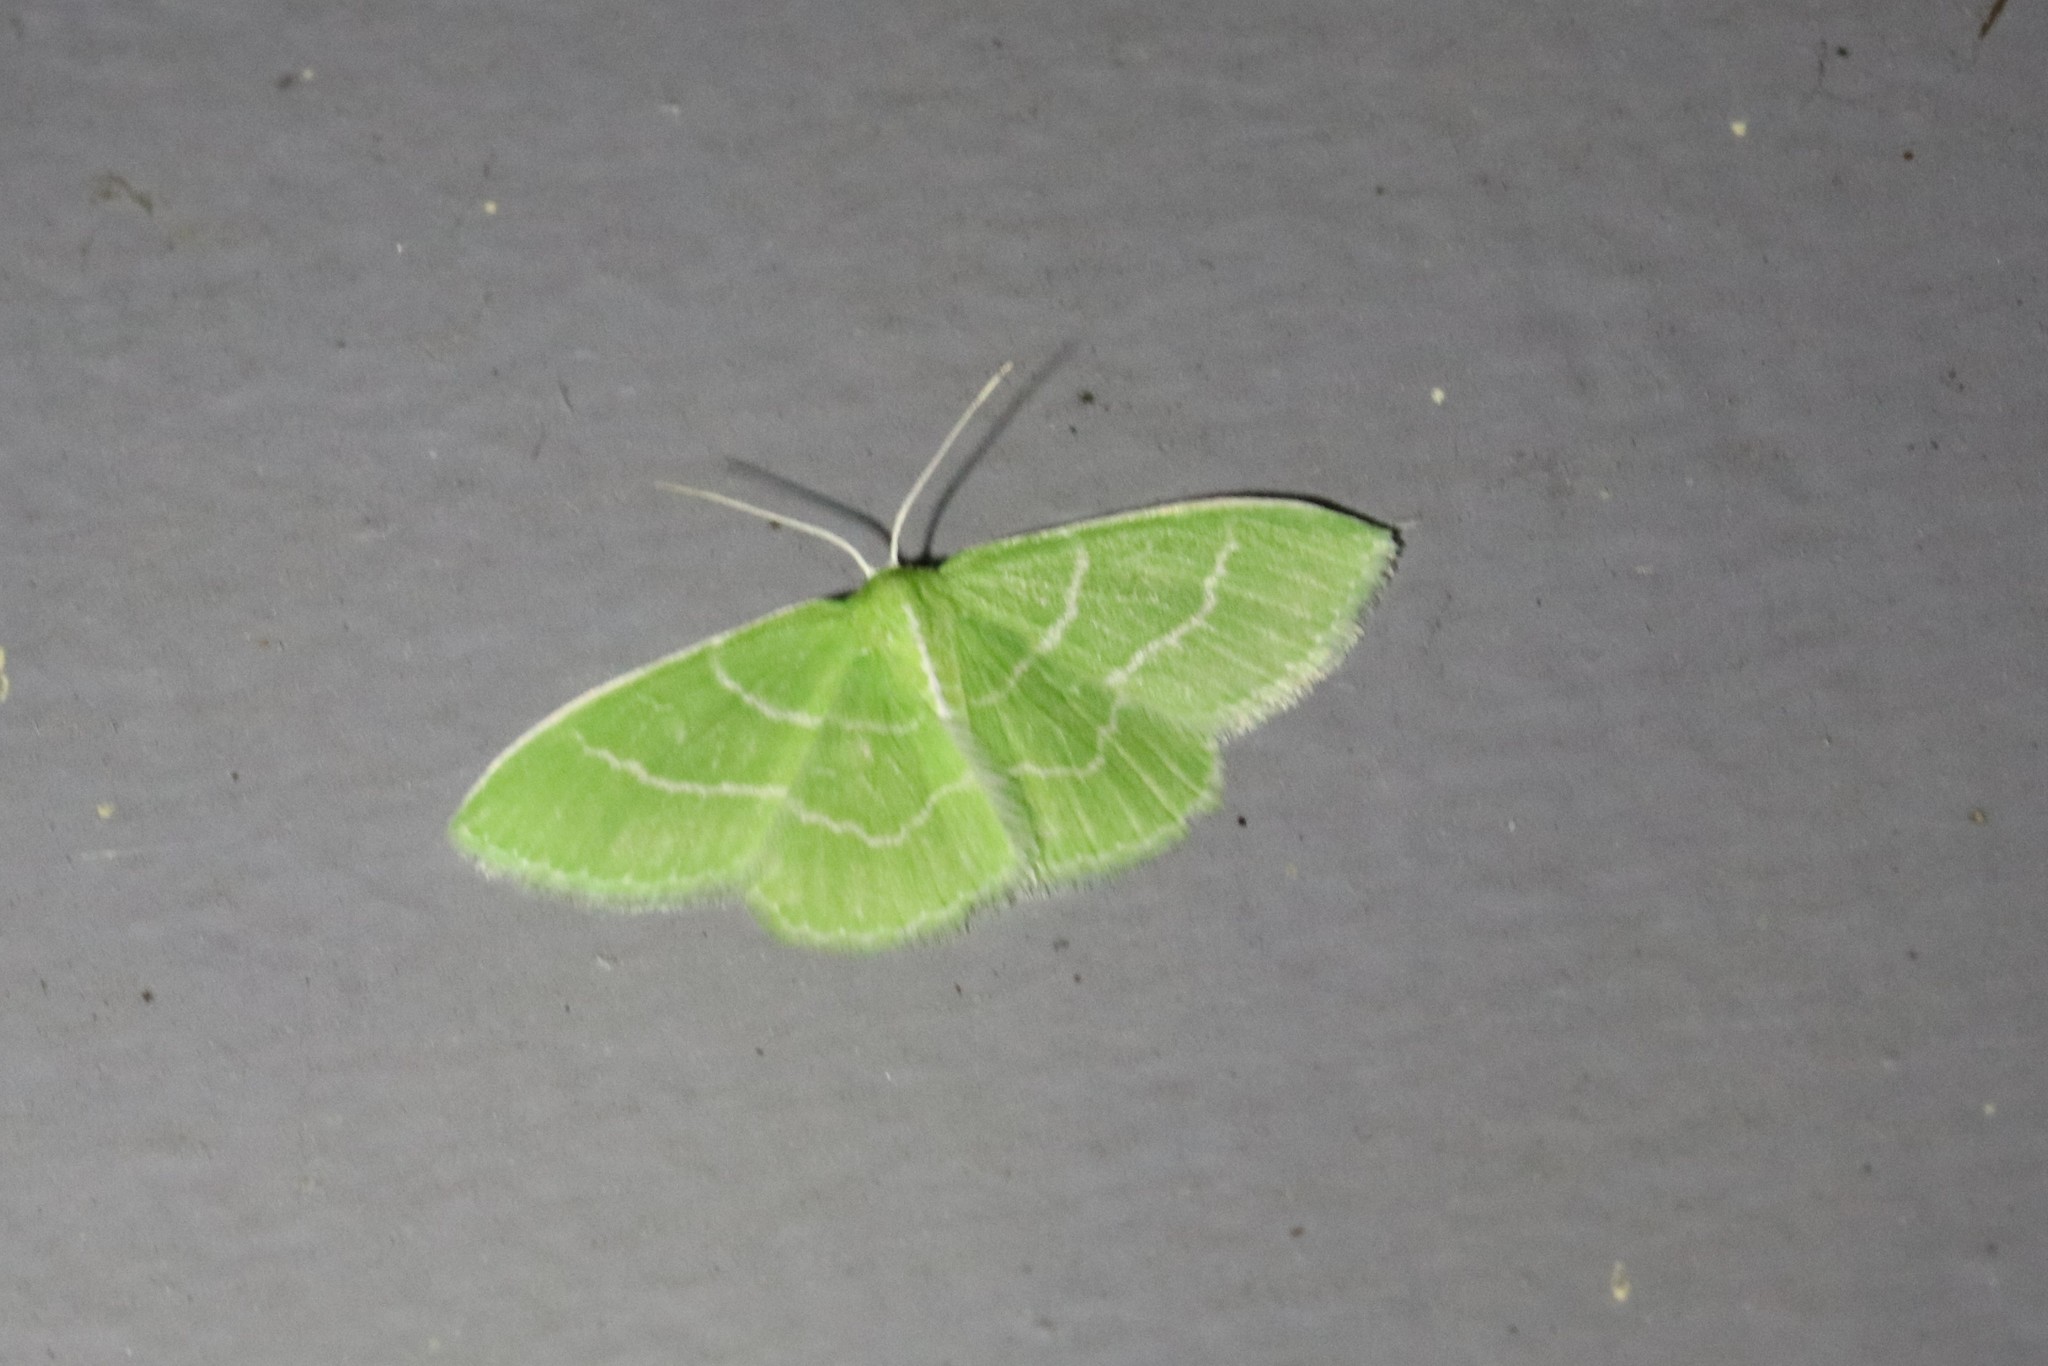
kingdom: Animalia
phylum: Arthropoda
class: Insecta
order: Lepidoptera
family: Geometridae
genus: Synchlora
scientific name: Synchlora aerata
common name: Wavy-lined emerald
